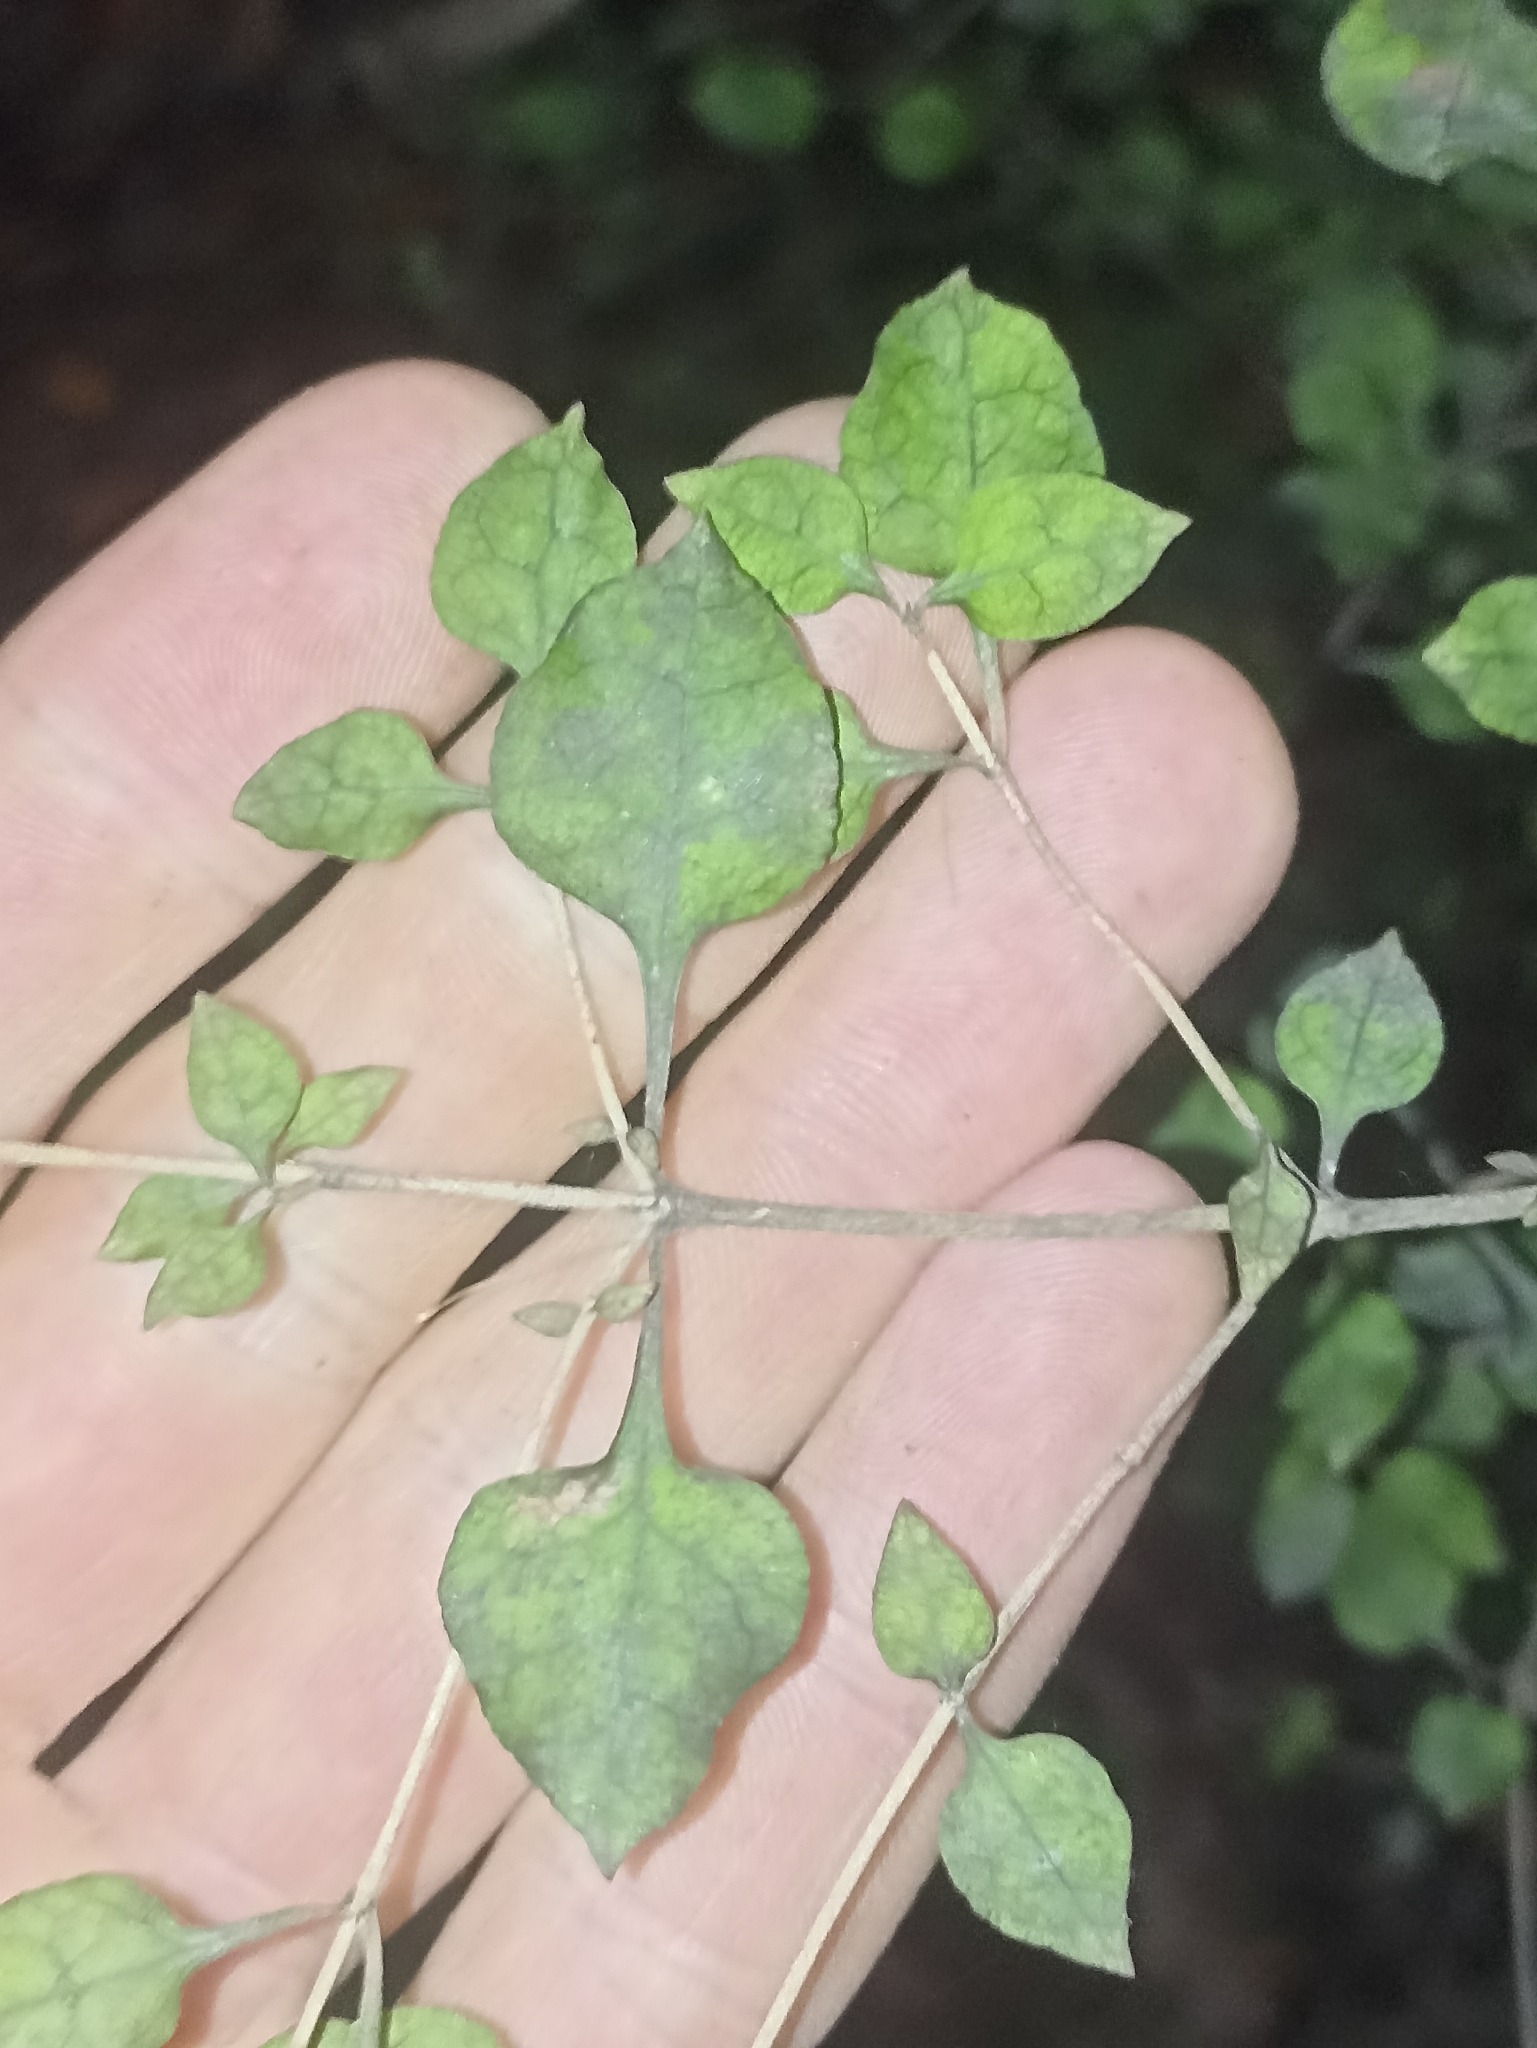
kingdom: Plantae
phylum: Tracheophyta
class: Magnoliopsida
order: Gentianales
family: Rubiaceae
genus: Coprosma
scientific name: Coprosma areolata
